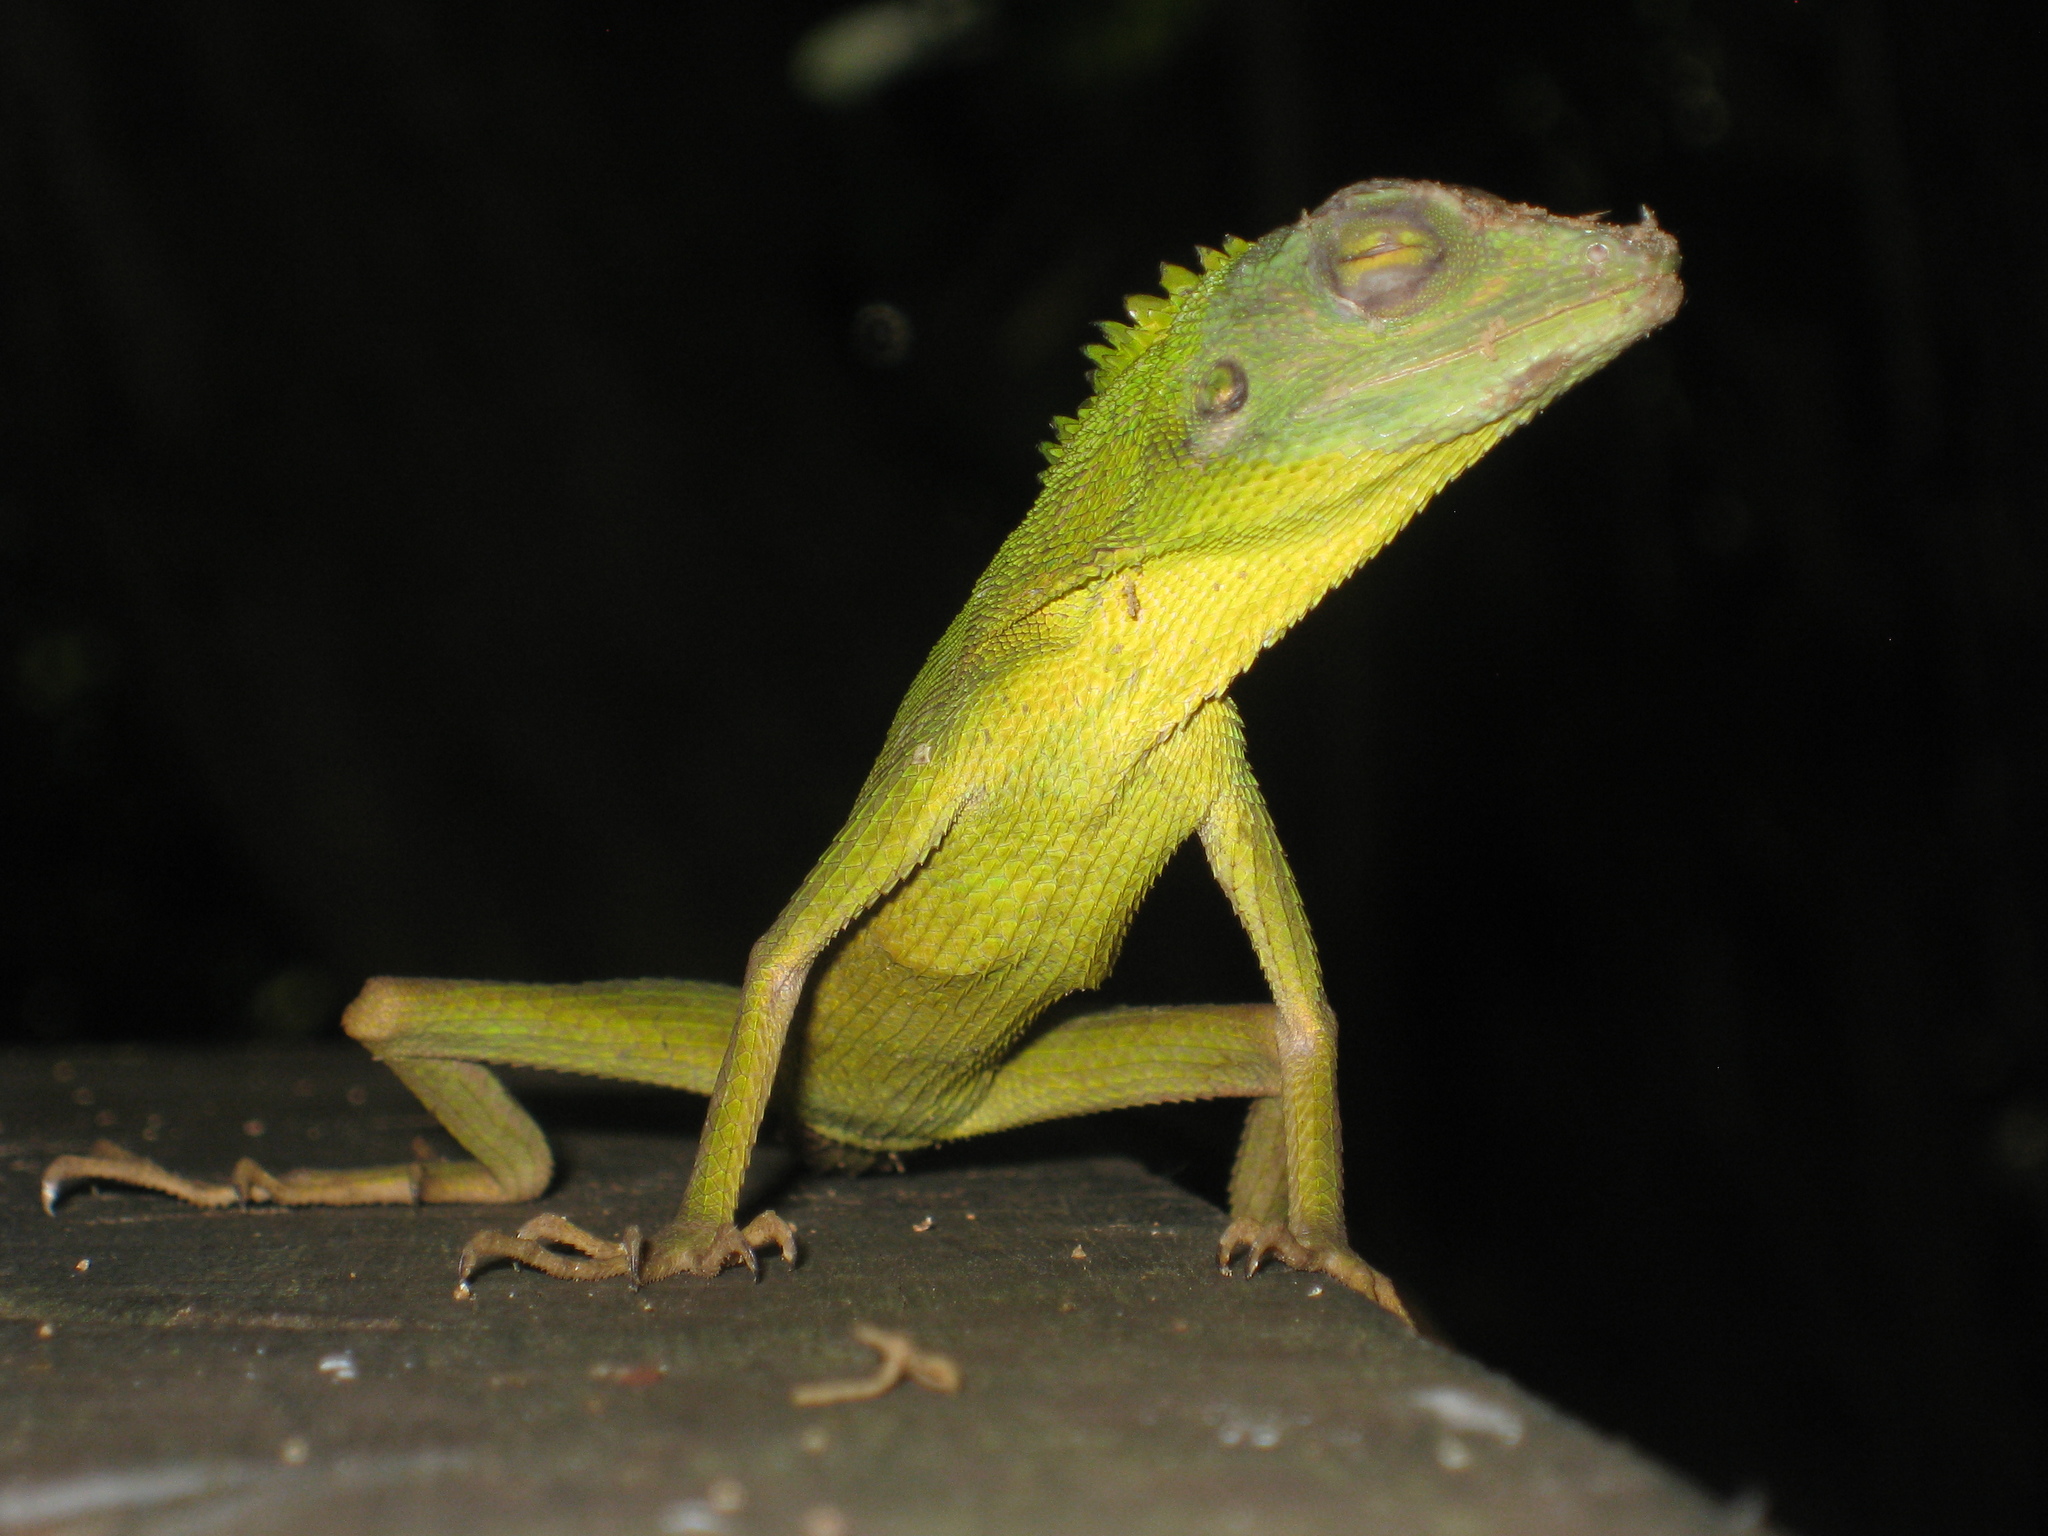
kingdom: Animalia
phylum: Chordata
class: Squamata
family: Agamidae
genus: Bronchocela
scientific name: Bronchocela cristatella
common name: Green crested lizard
